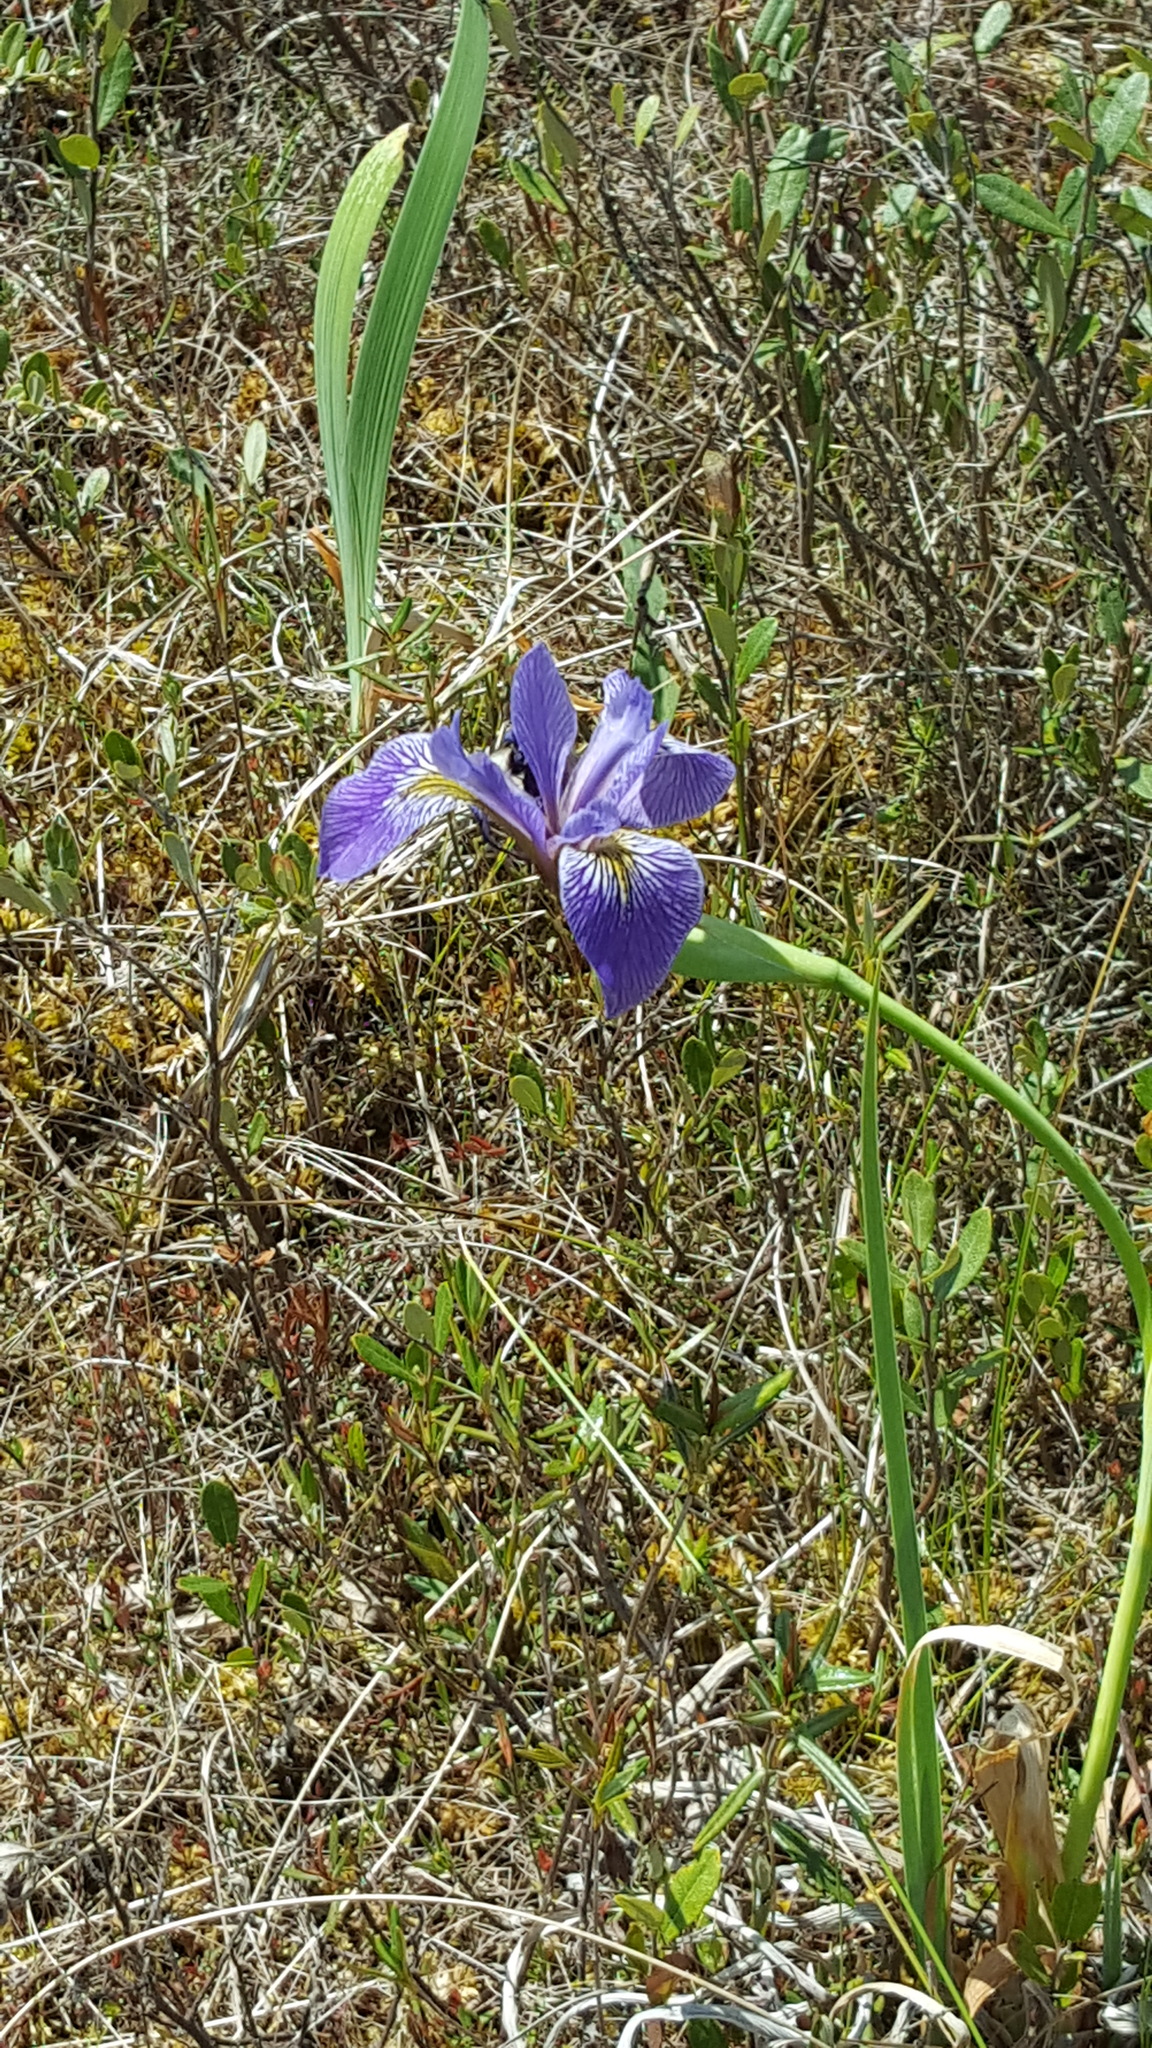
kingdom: Plantae
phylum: Tracheophyta
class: Liliopsida
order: Asparagales
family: Iridaceae
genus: Iris
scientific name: Iris versicolor
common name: Purple iris
